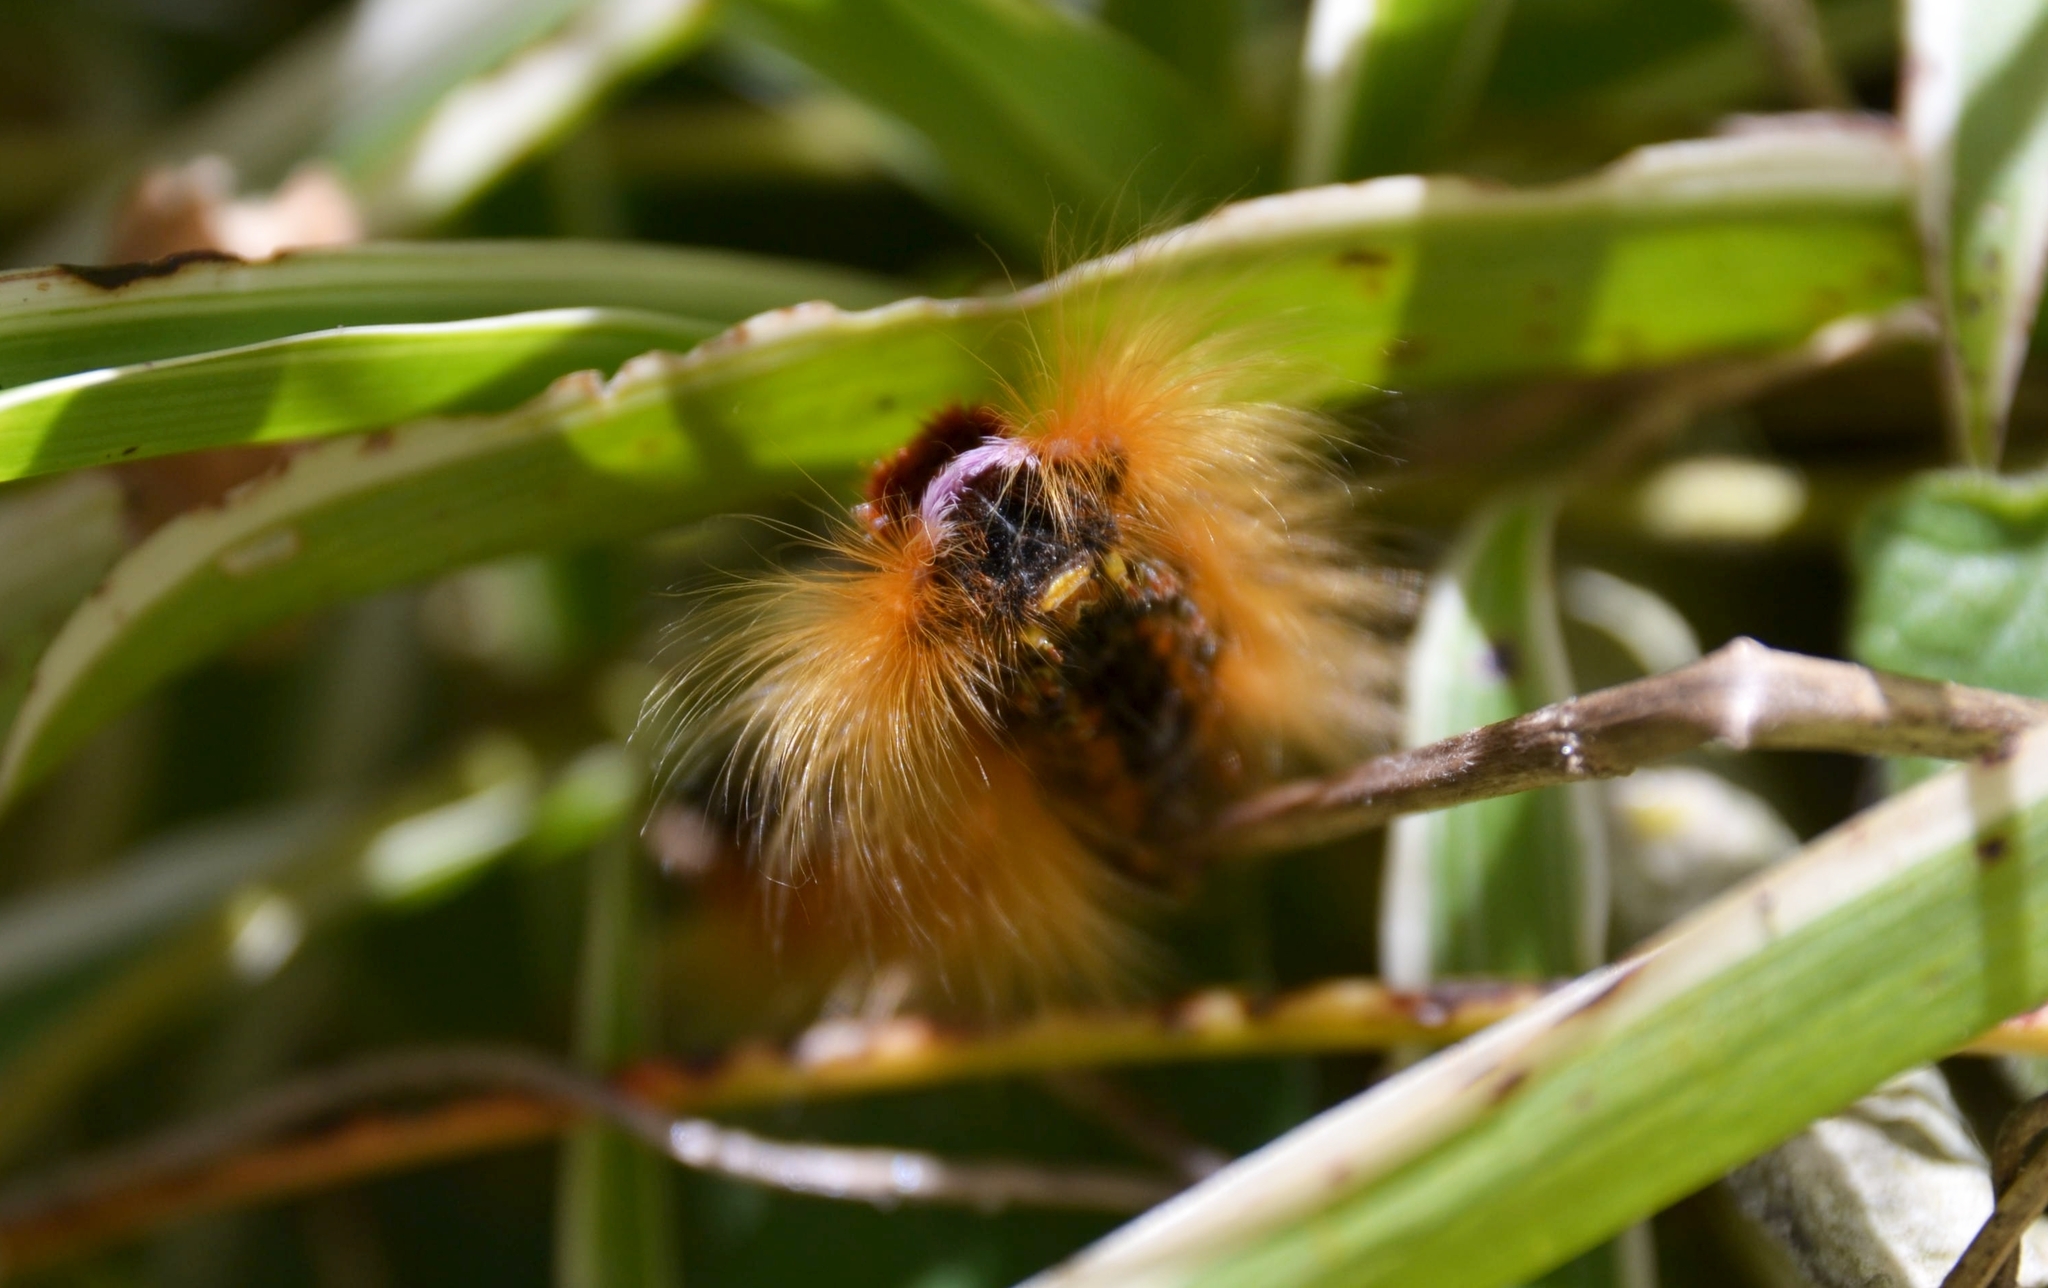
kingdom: Animalia
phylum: Arthropoda
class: Insecta
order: Lepidoptera
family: Lasiocampidae
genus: Eutricha
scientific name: Eutricha capensis
